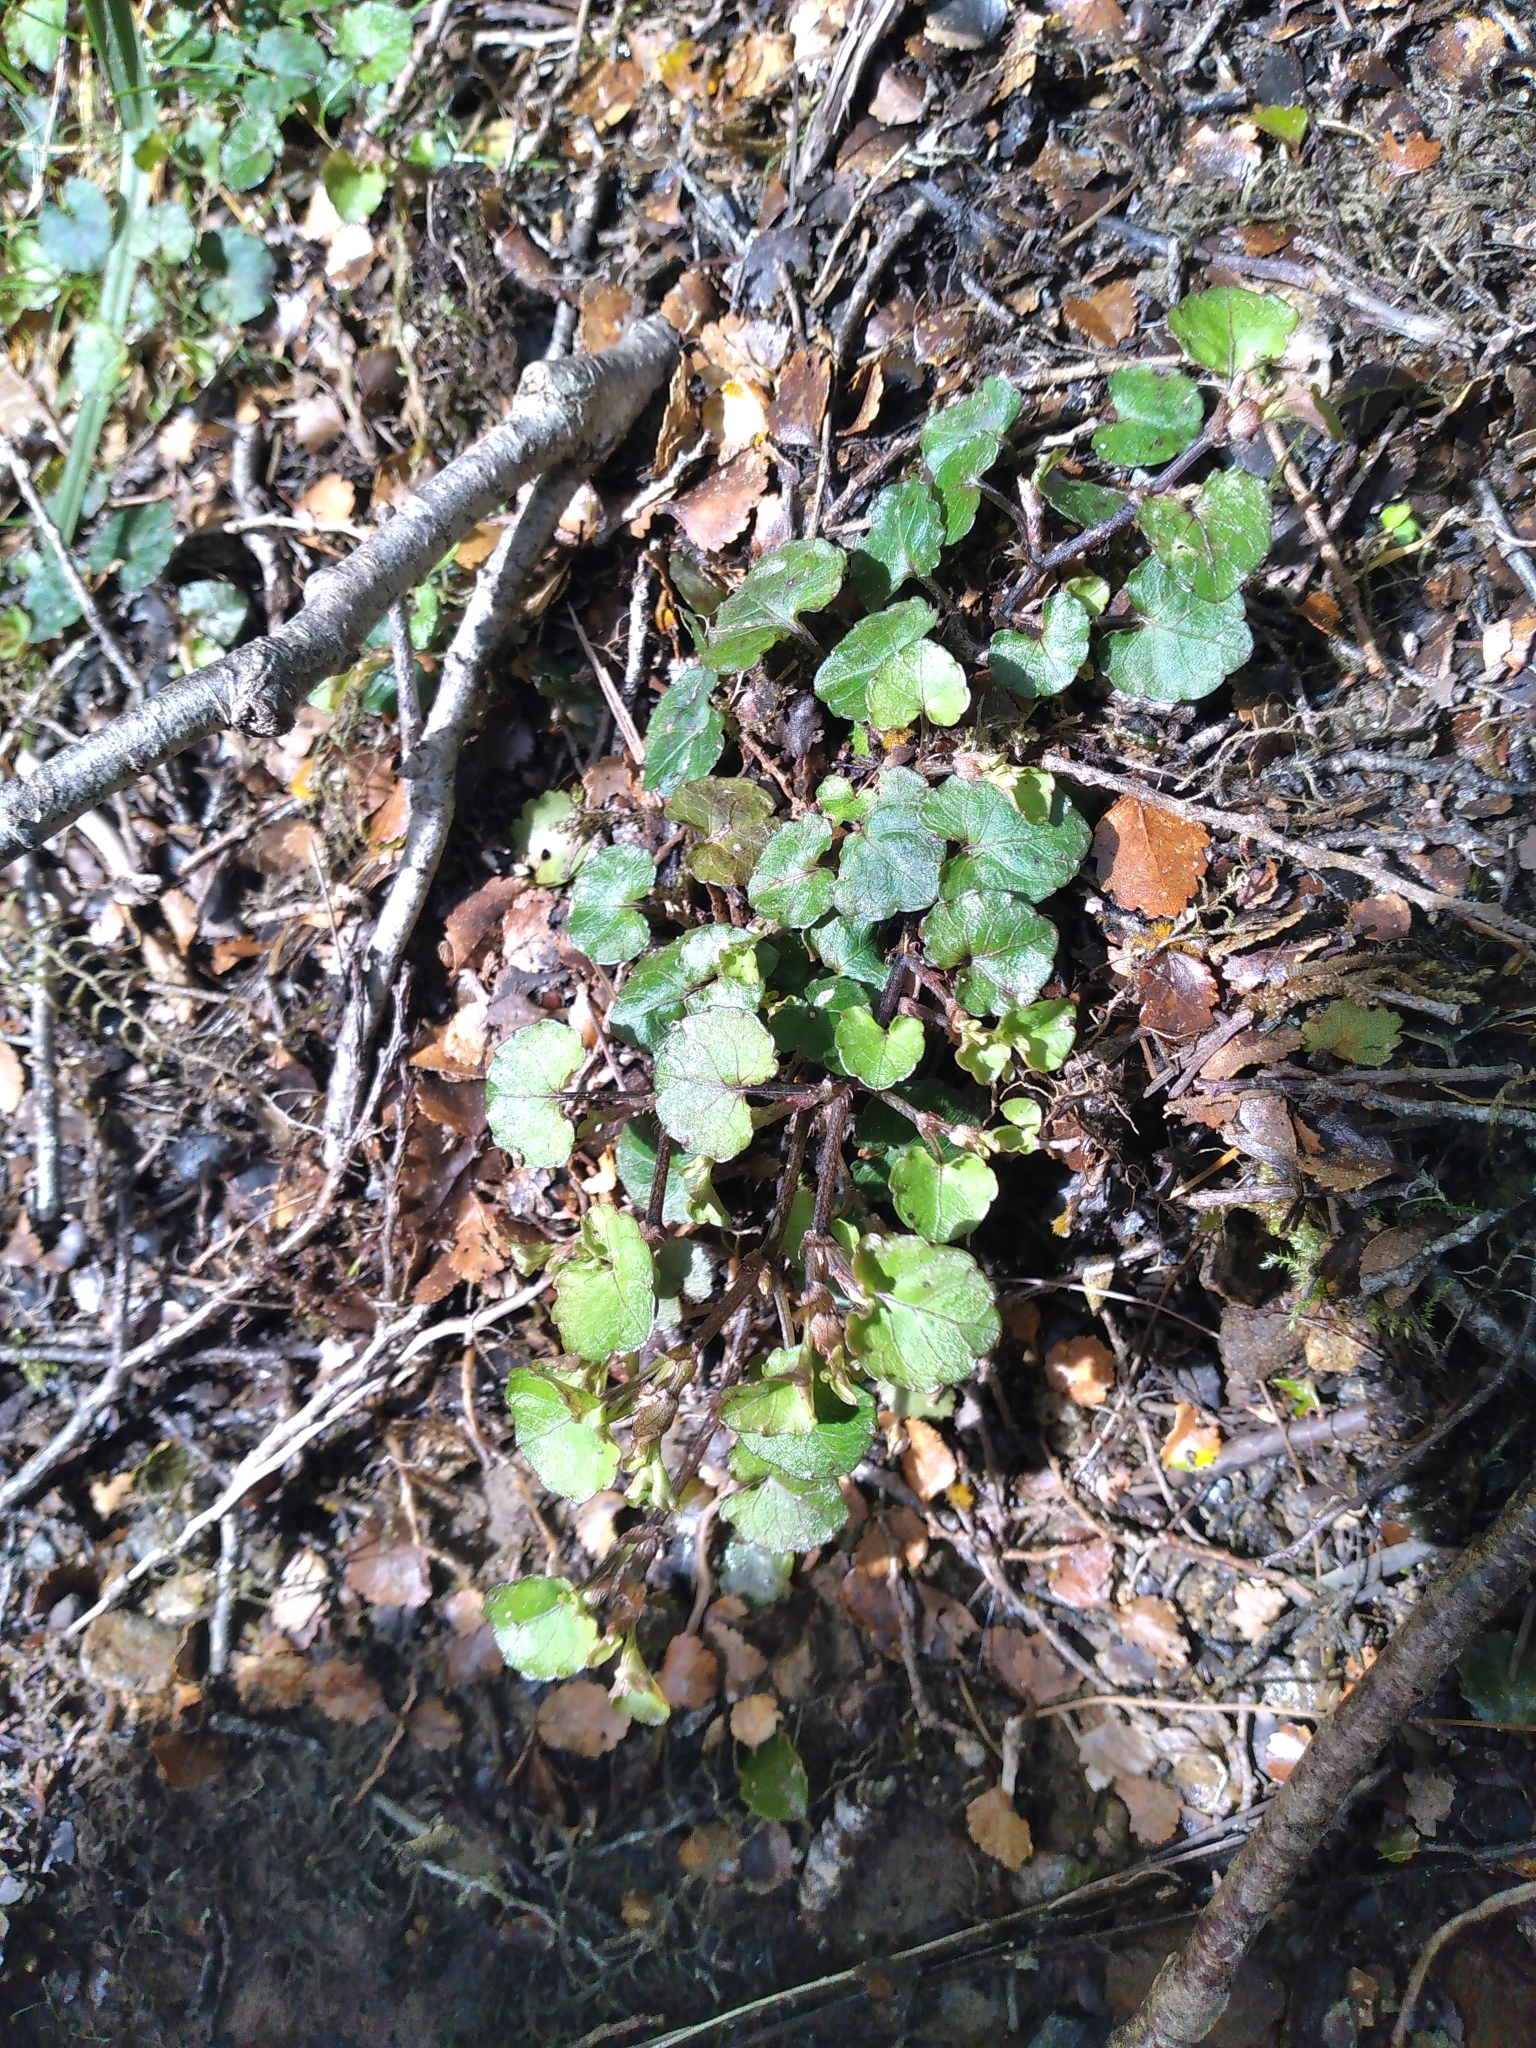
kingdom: Plantae
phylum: Tracheophyta
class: Magnoliopsida
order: Malpighiales
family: Violaceae
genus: Viola
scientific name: Viola filicaulis
